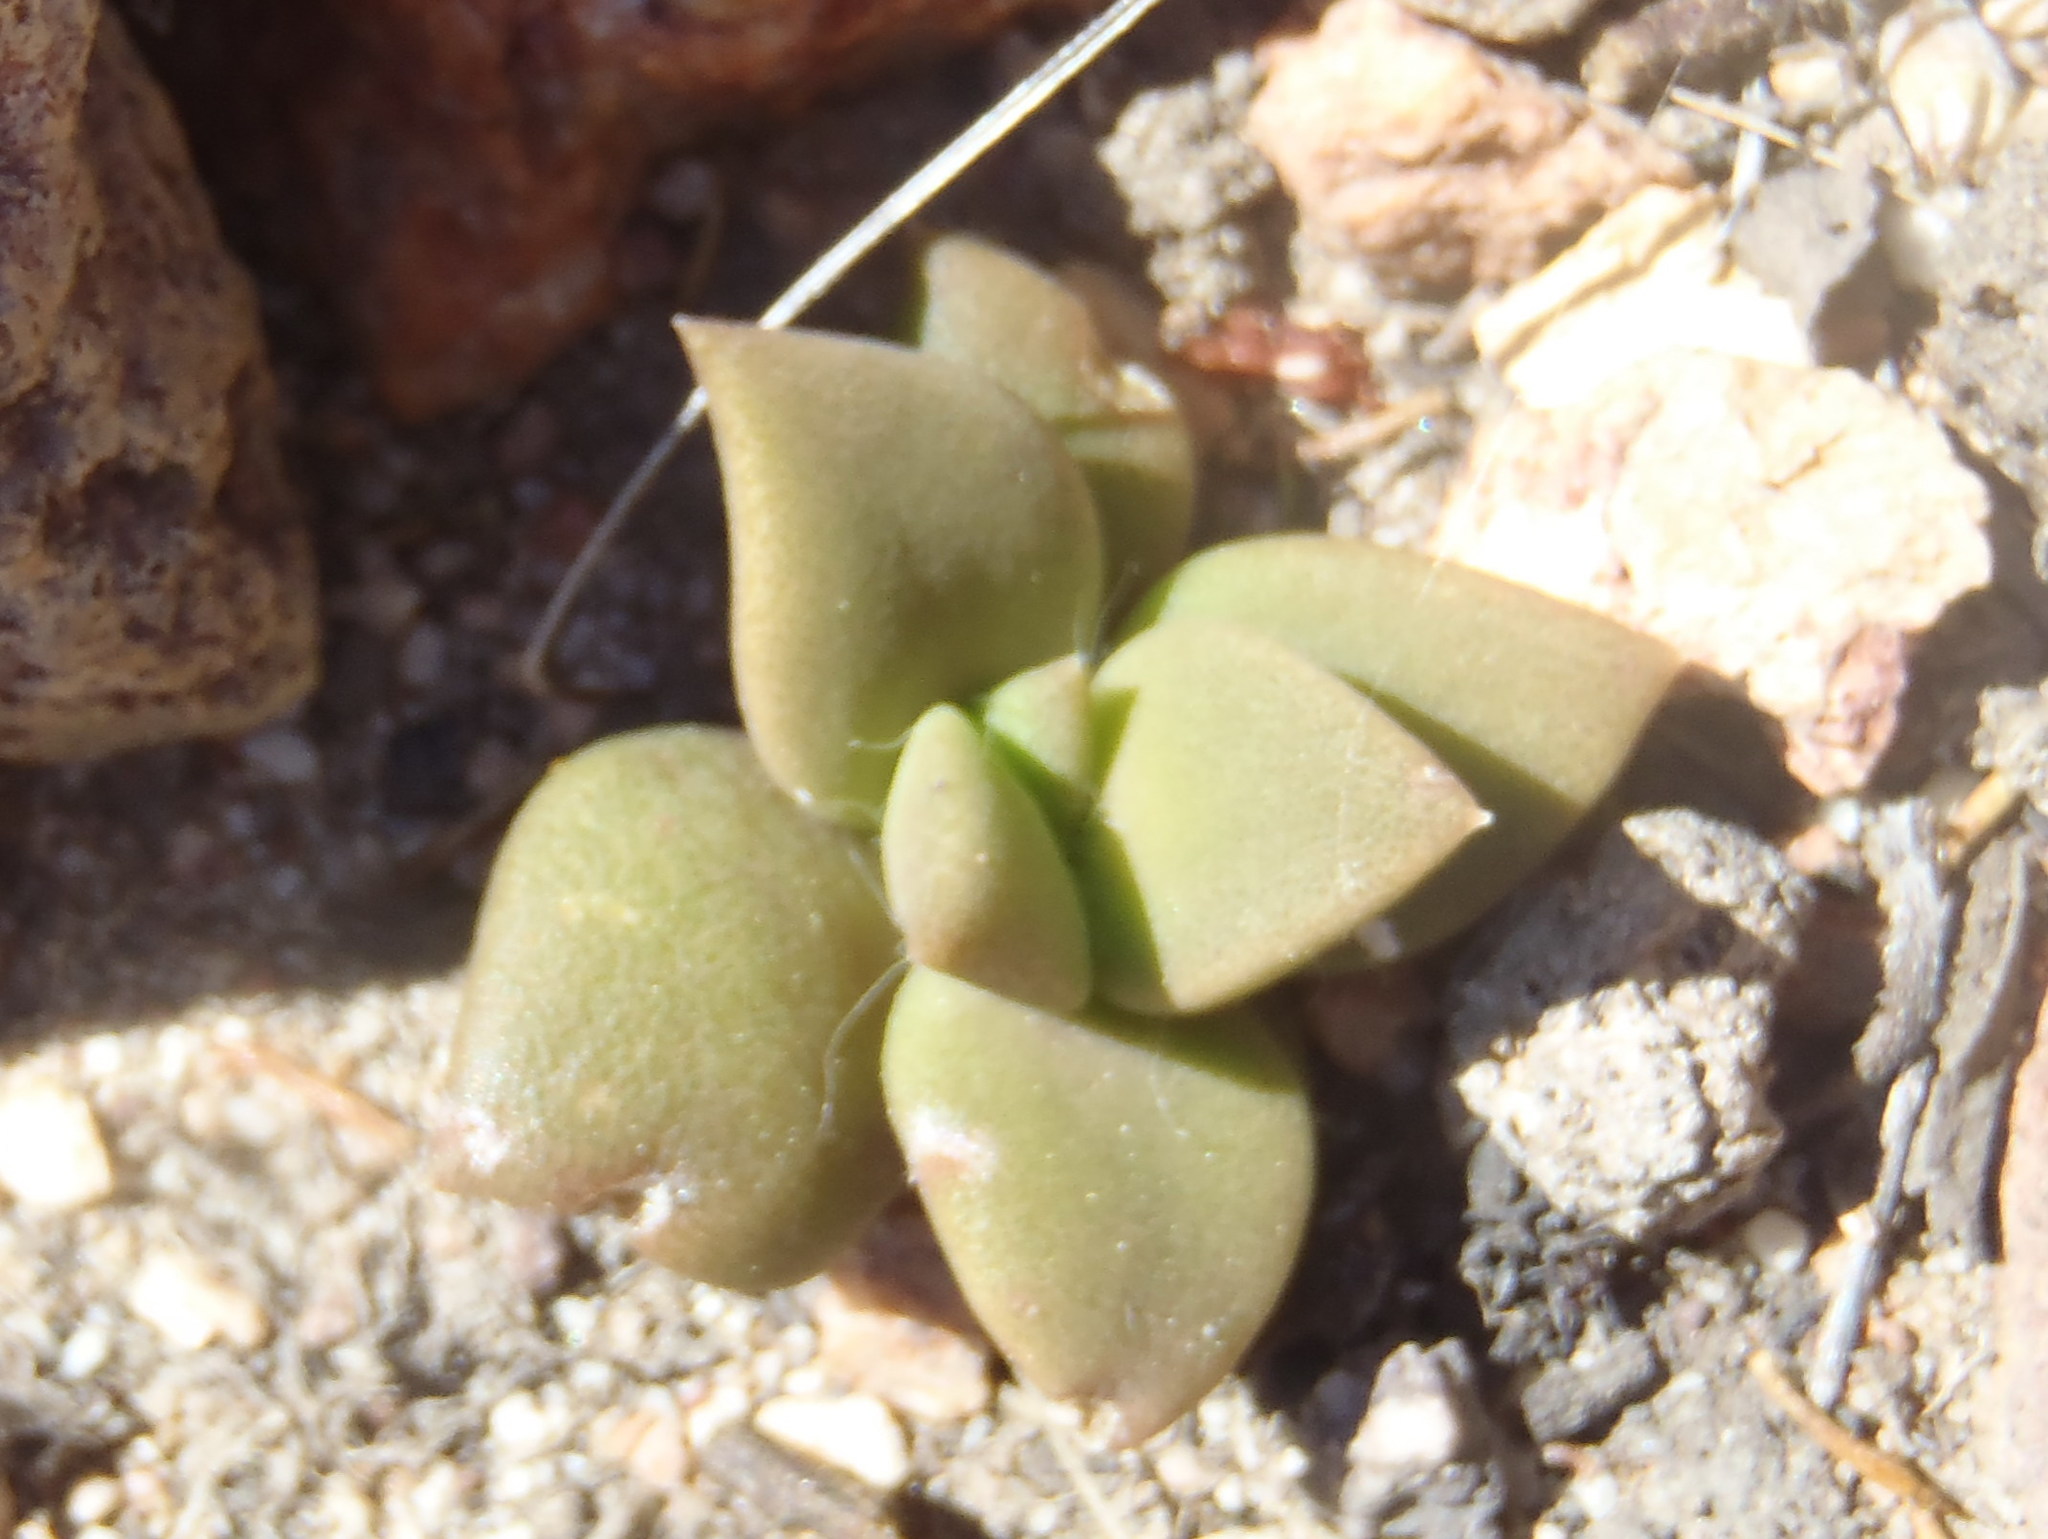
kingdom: Plantae
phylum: Tracheophyta
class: Magnoliopsida
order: Caryophyllales
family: Anacampserotaceae
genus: Anacampseros
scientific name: Anacampseros telephiastrum
